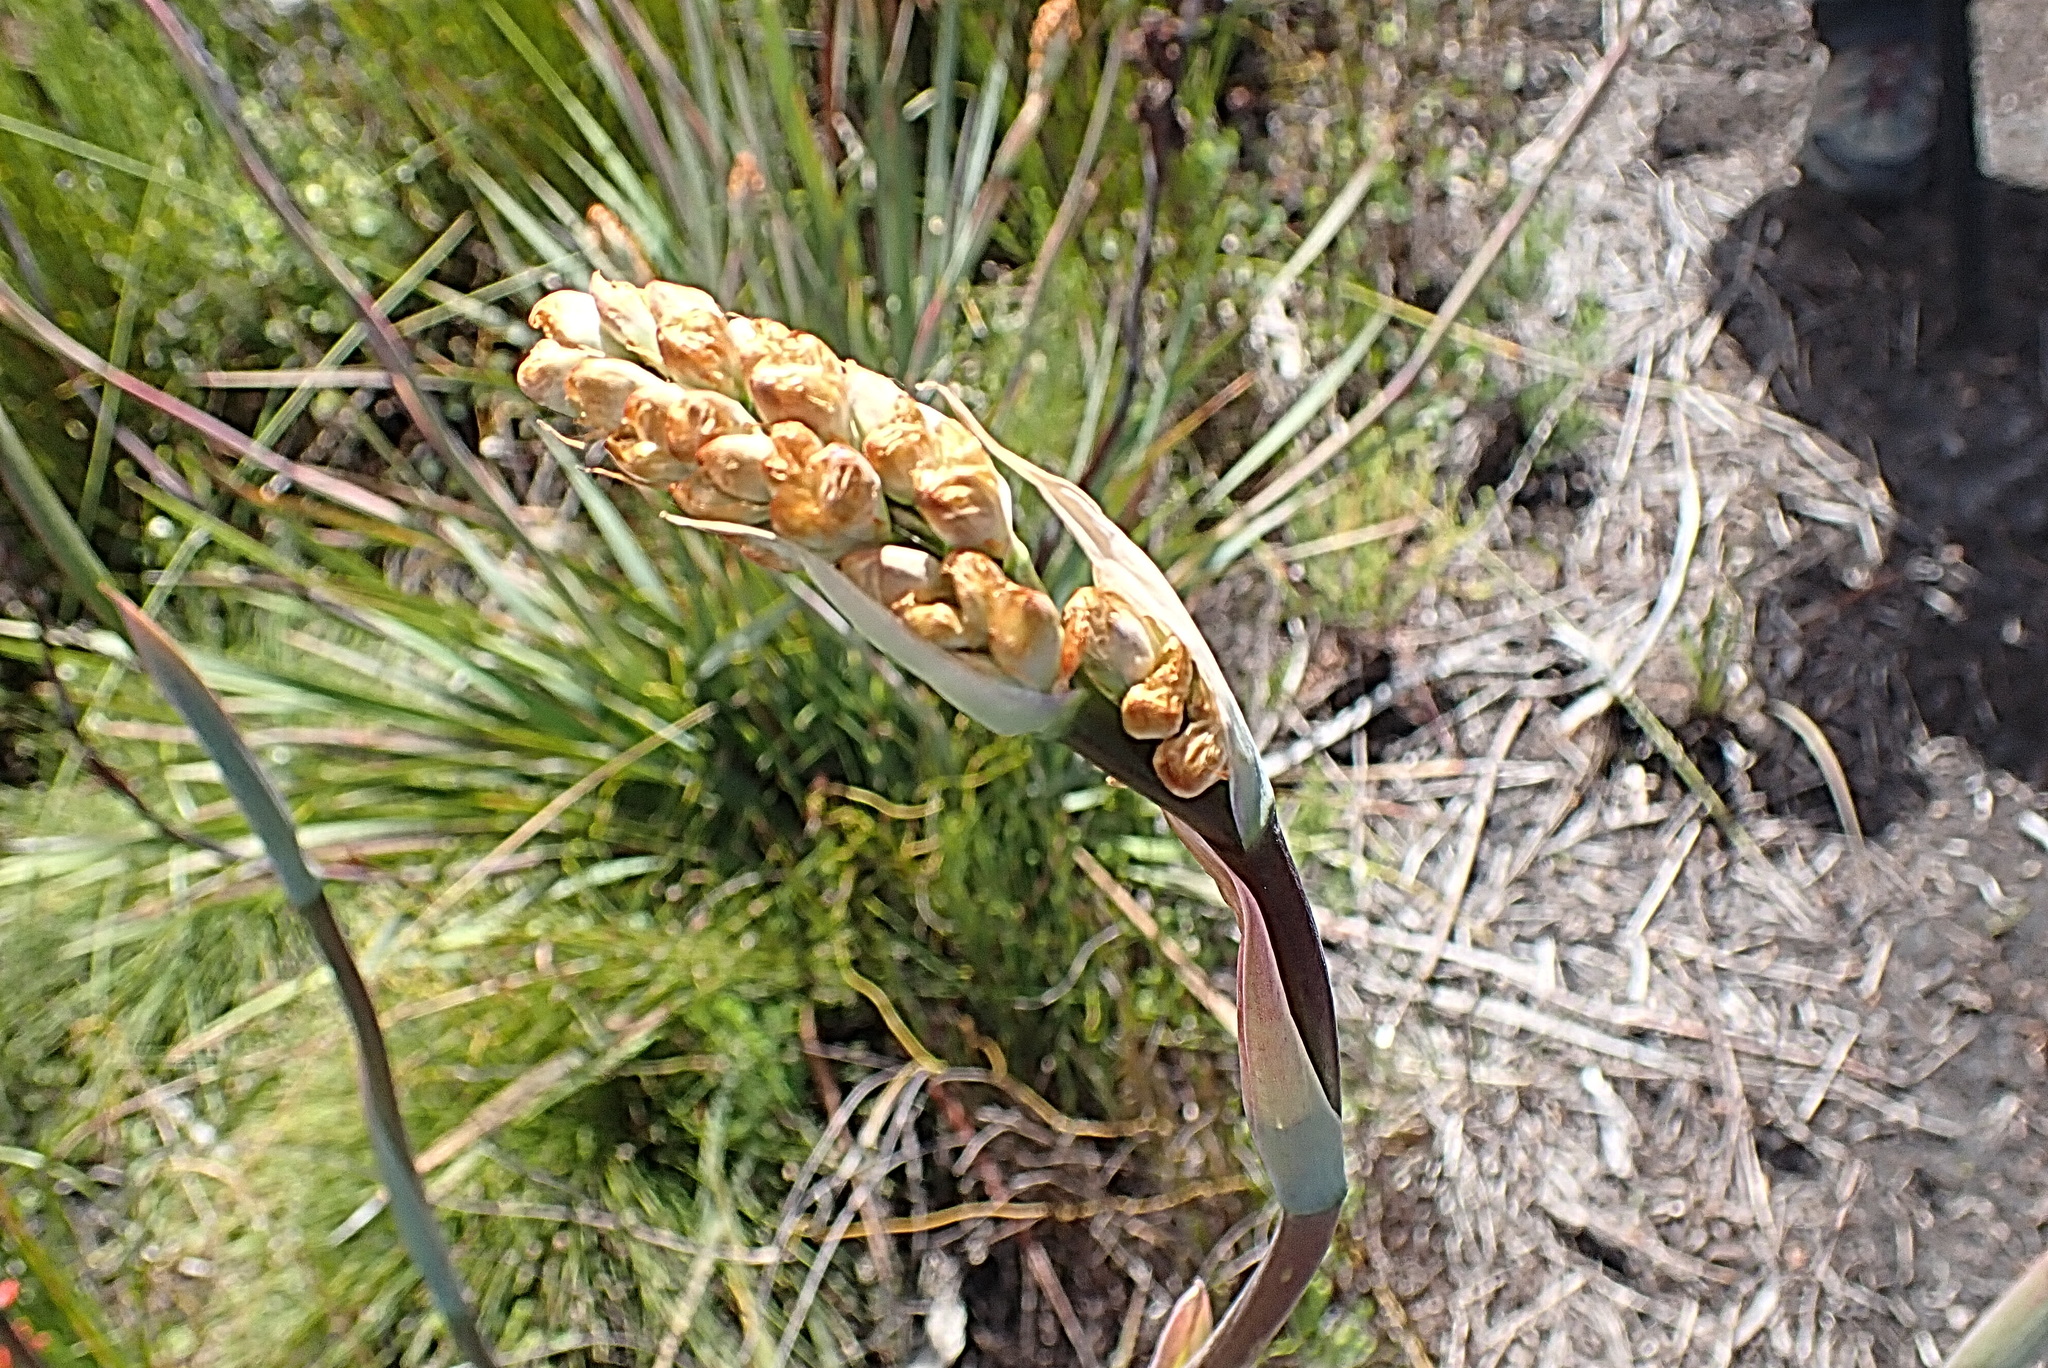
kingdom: Plantae
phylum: Tracheophyta
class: Liliopsida
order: Asparagales
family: Iridaceae
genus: Aristea
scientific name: Aristea bakeri
